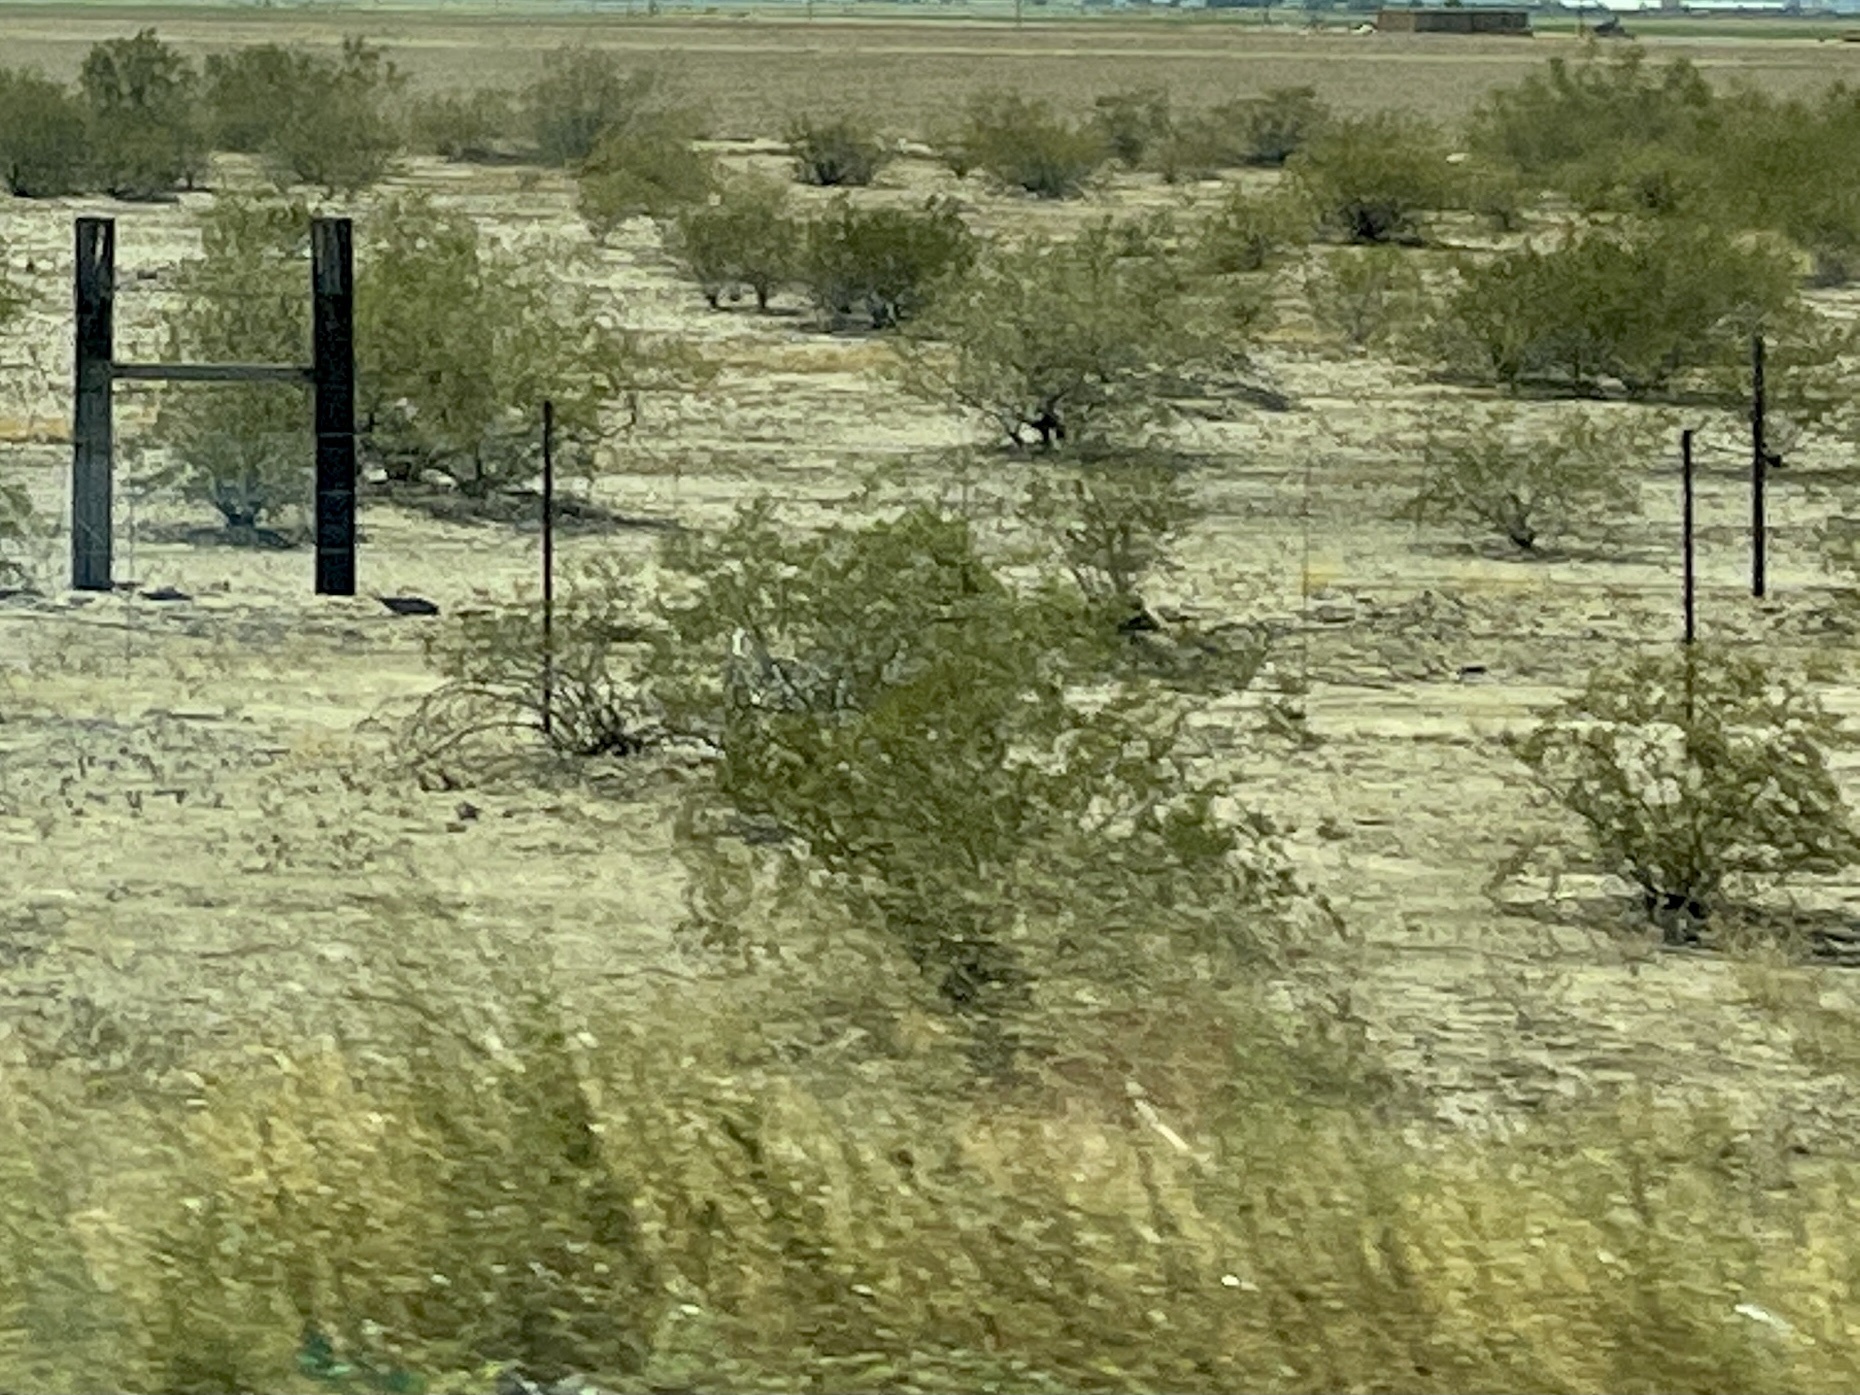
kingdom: Plantae
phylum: Tracheophyta
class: Magnoliopsida
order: Zygophyllales
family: Zygophyllaceae
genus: Larrea
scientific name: Larrea tridentata
